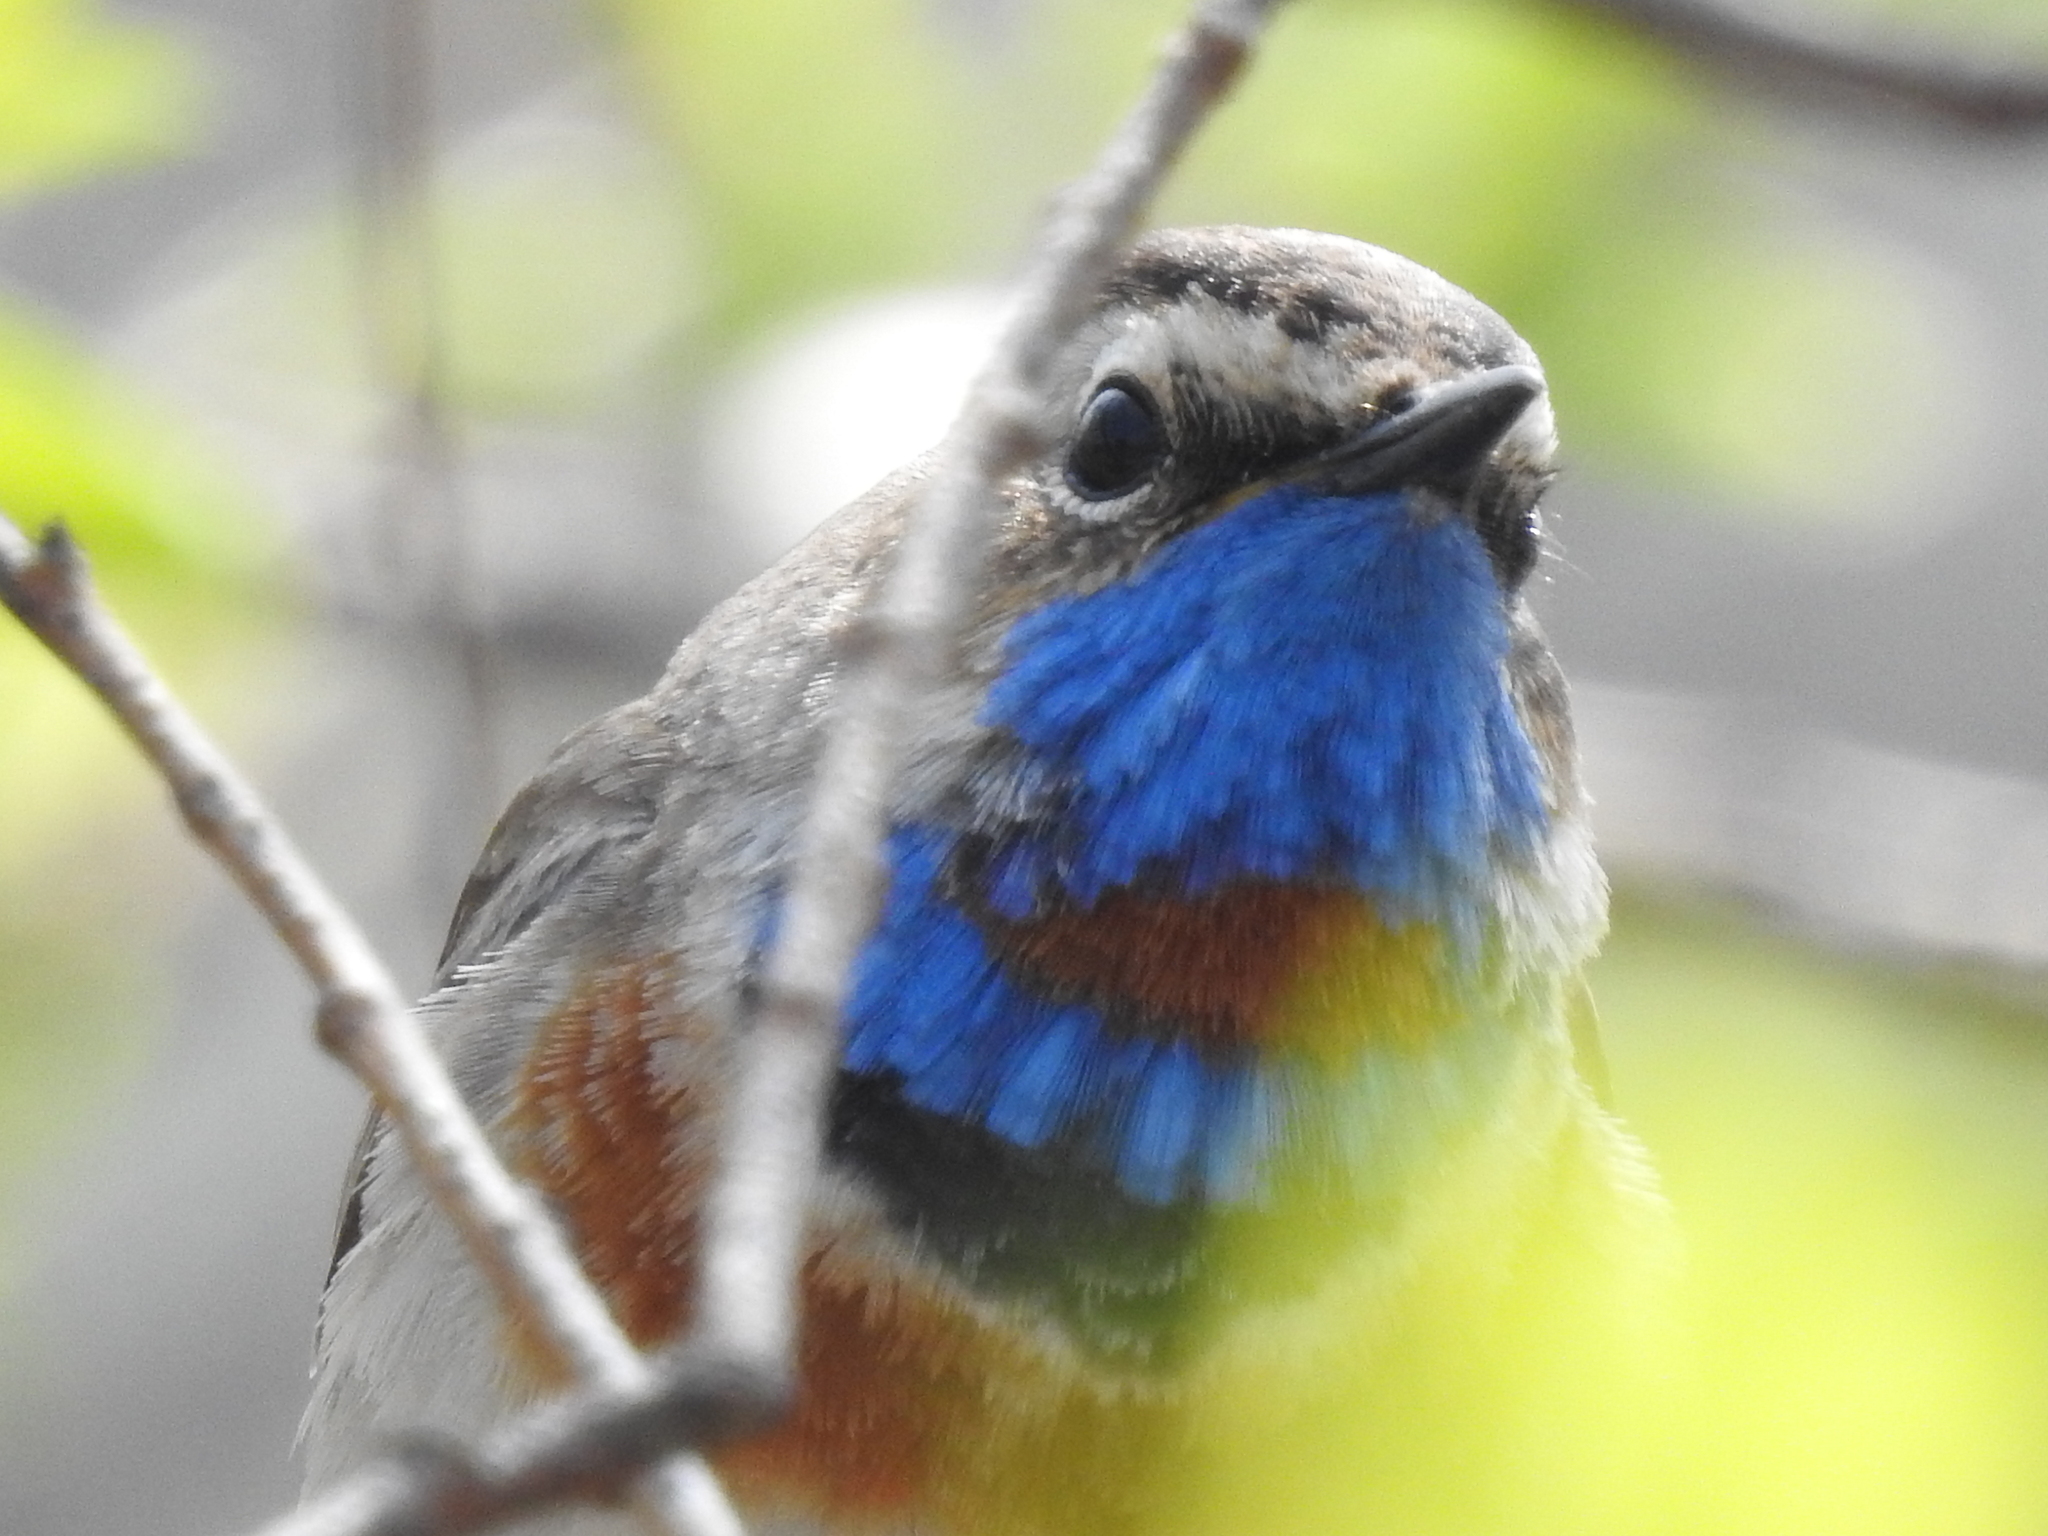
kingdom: Animalia
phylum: Chordata
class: Aves
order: Passeriformes
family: Muscicapidae
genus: Luscinia
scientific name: Luscinia svecica
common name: Bluethroat
